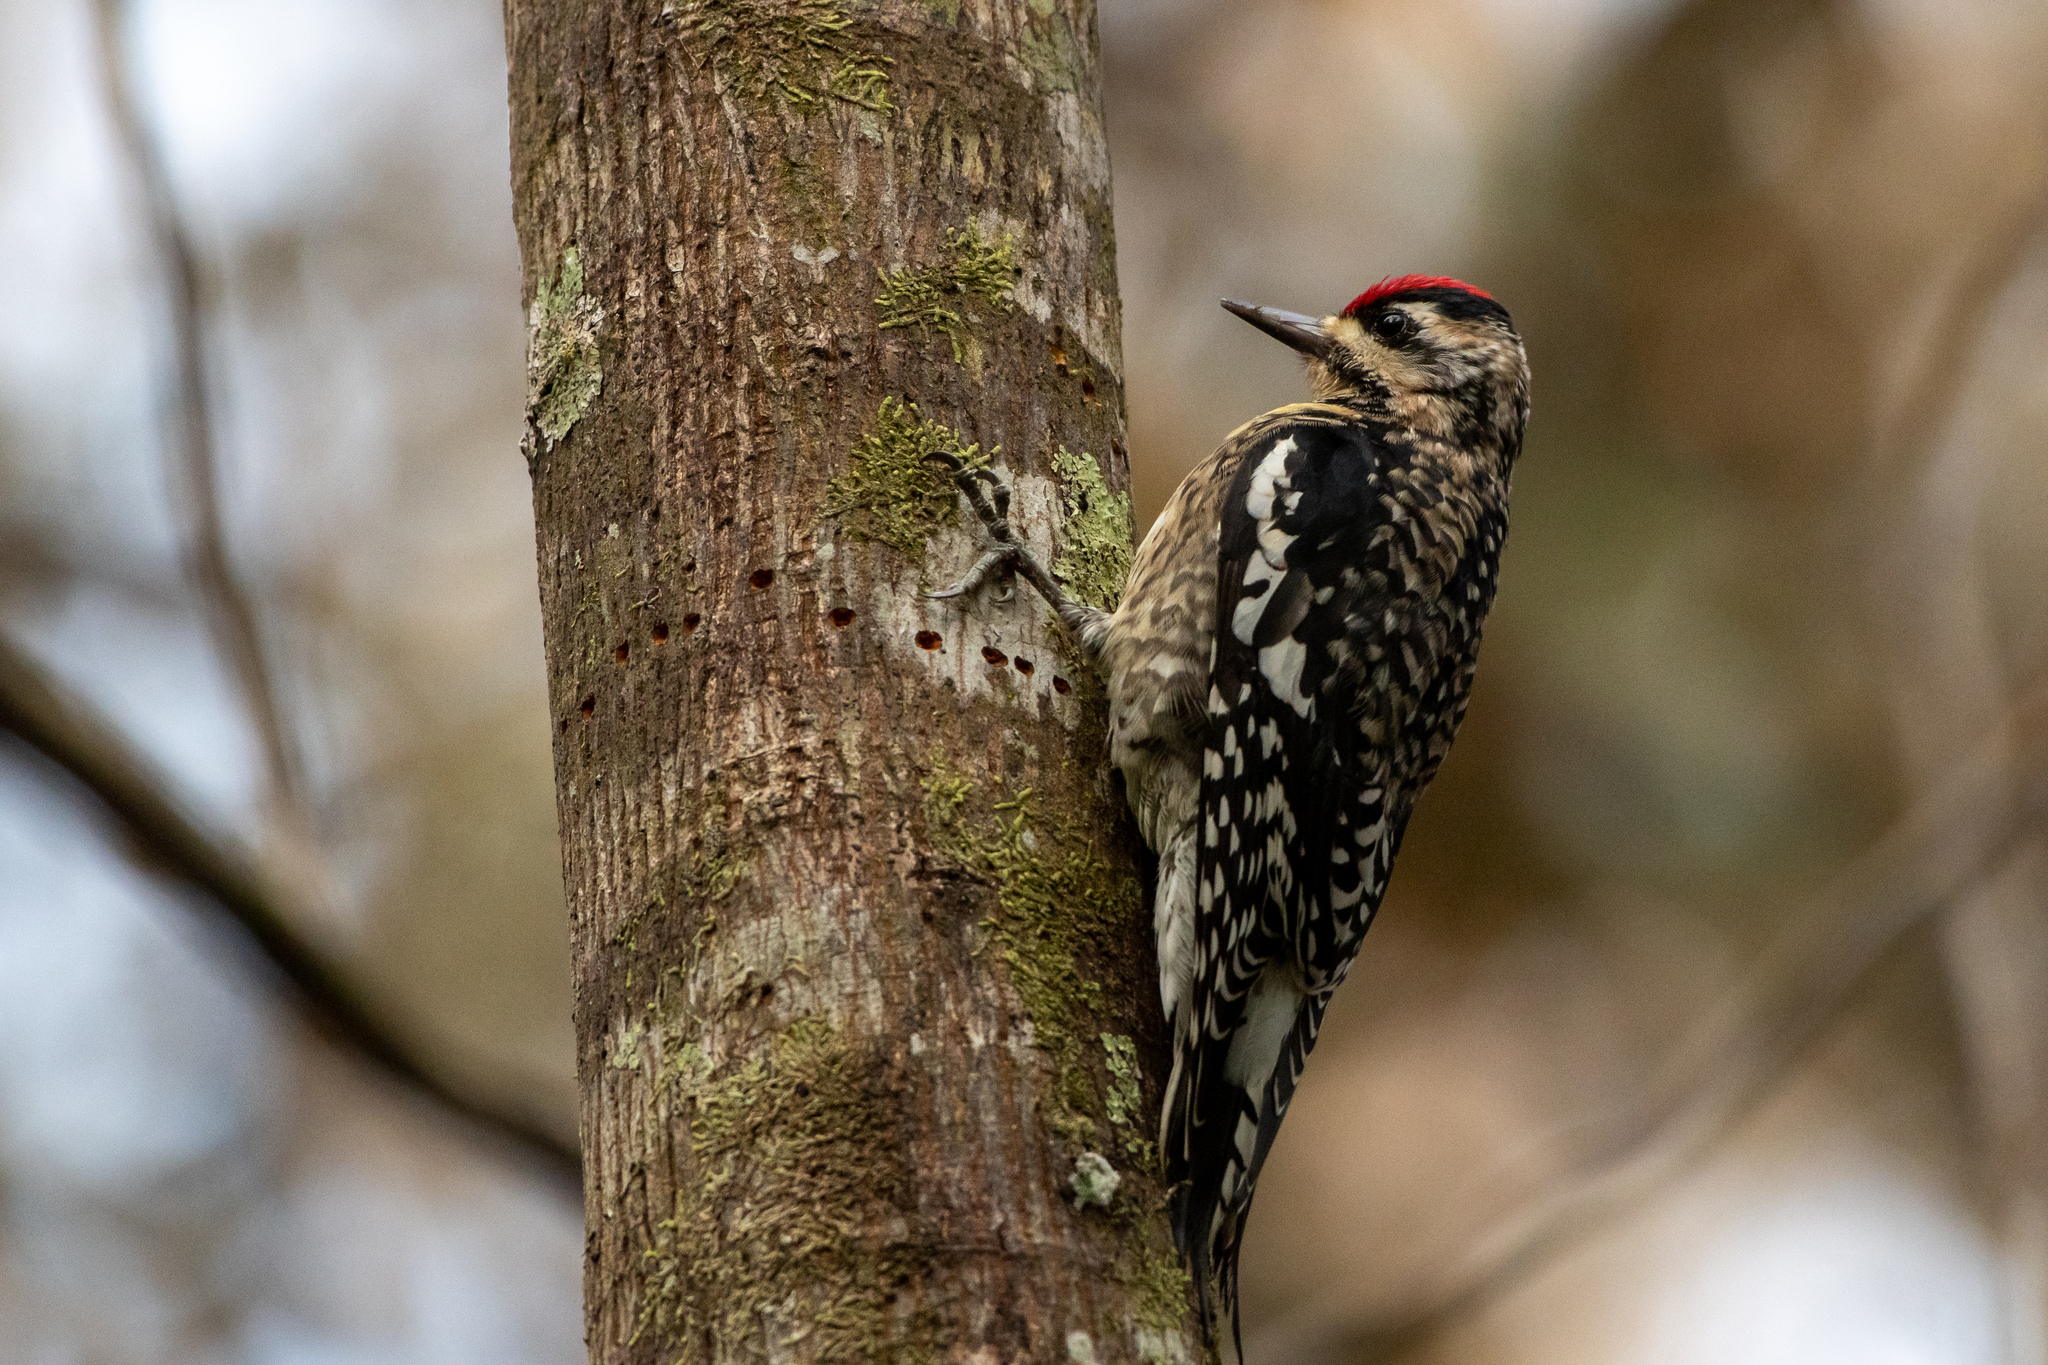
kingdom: Animalia
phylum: Chordata
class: Aves
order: Piciformes
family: Picidae
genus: Sphyrapicus
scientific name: Sphyrapicus varius
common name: Yellow-bellied sapsucker
